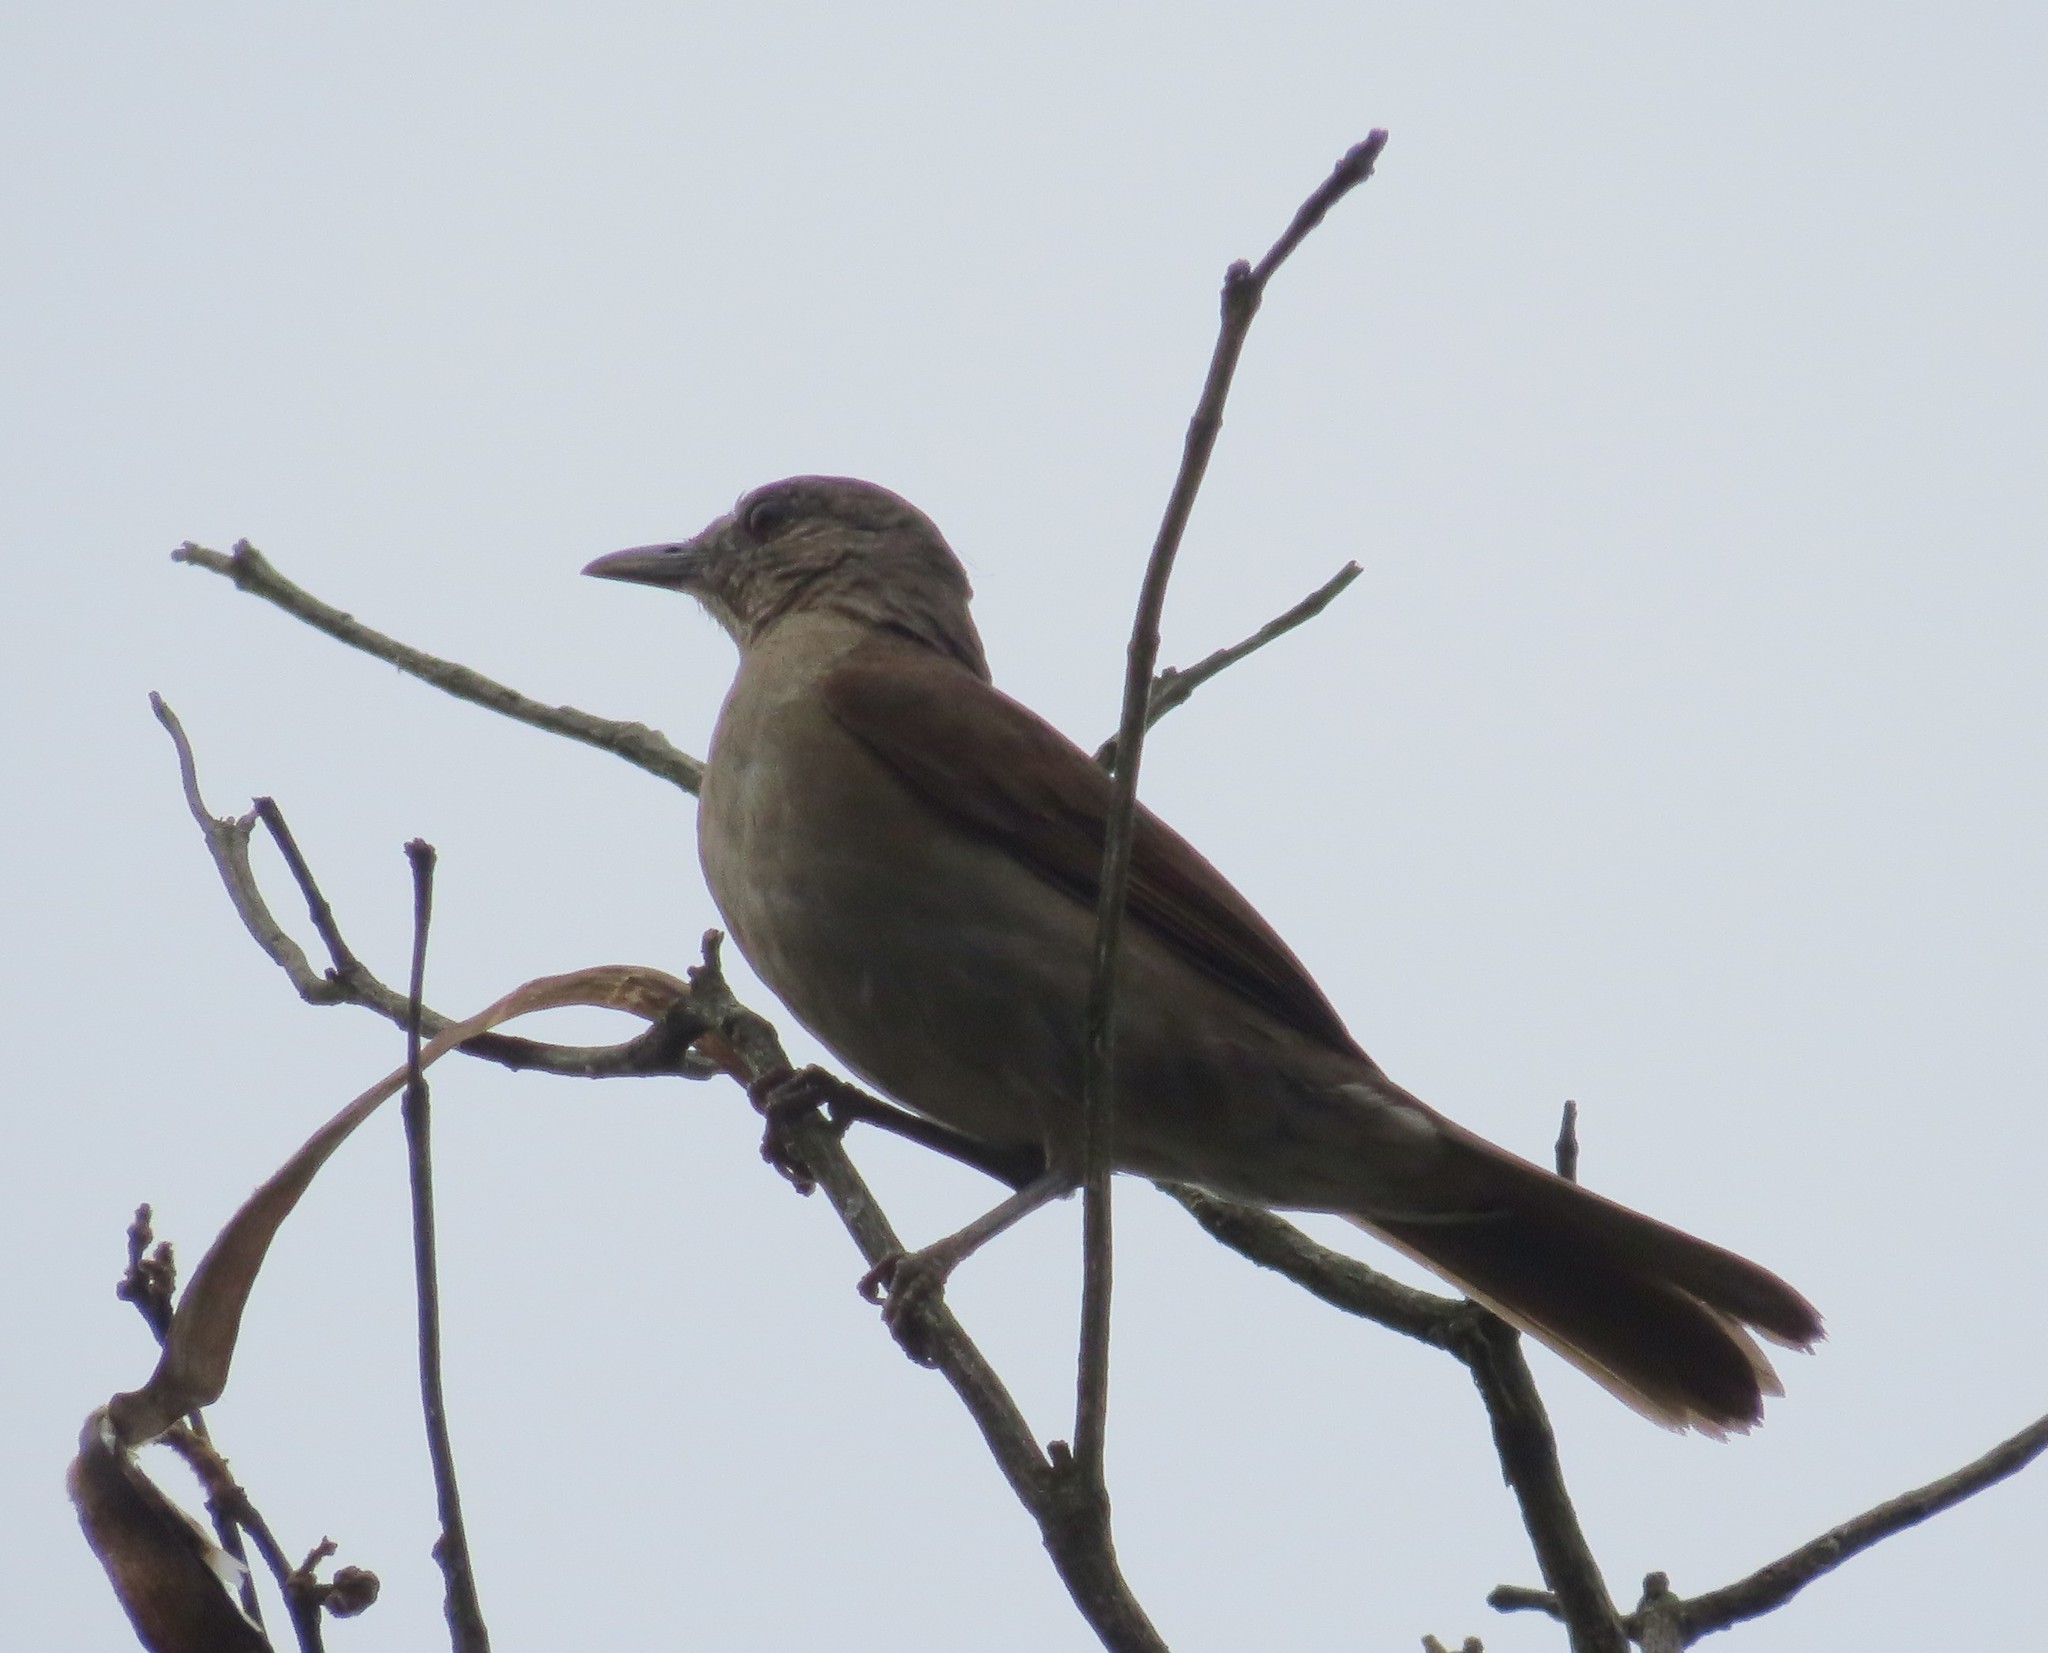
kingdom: Animalia
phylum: Chordata
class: Aves
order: Passeriformes
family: Turdidae
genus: Turdus
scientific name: Turdus leucomelas
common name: Pale-breasted thrush
